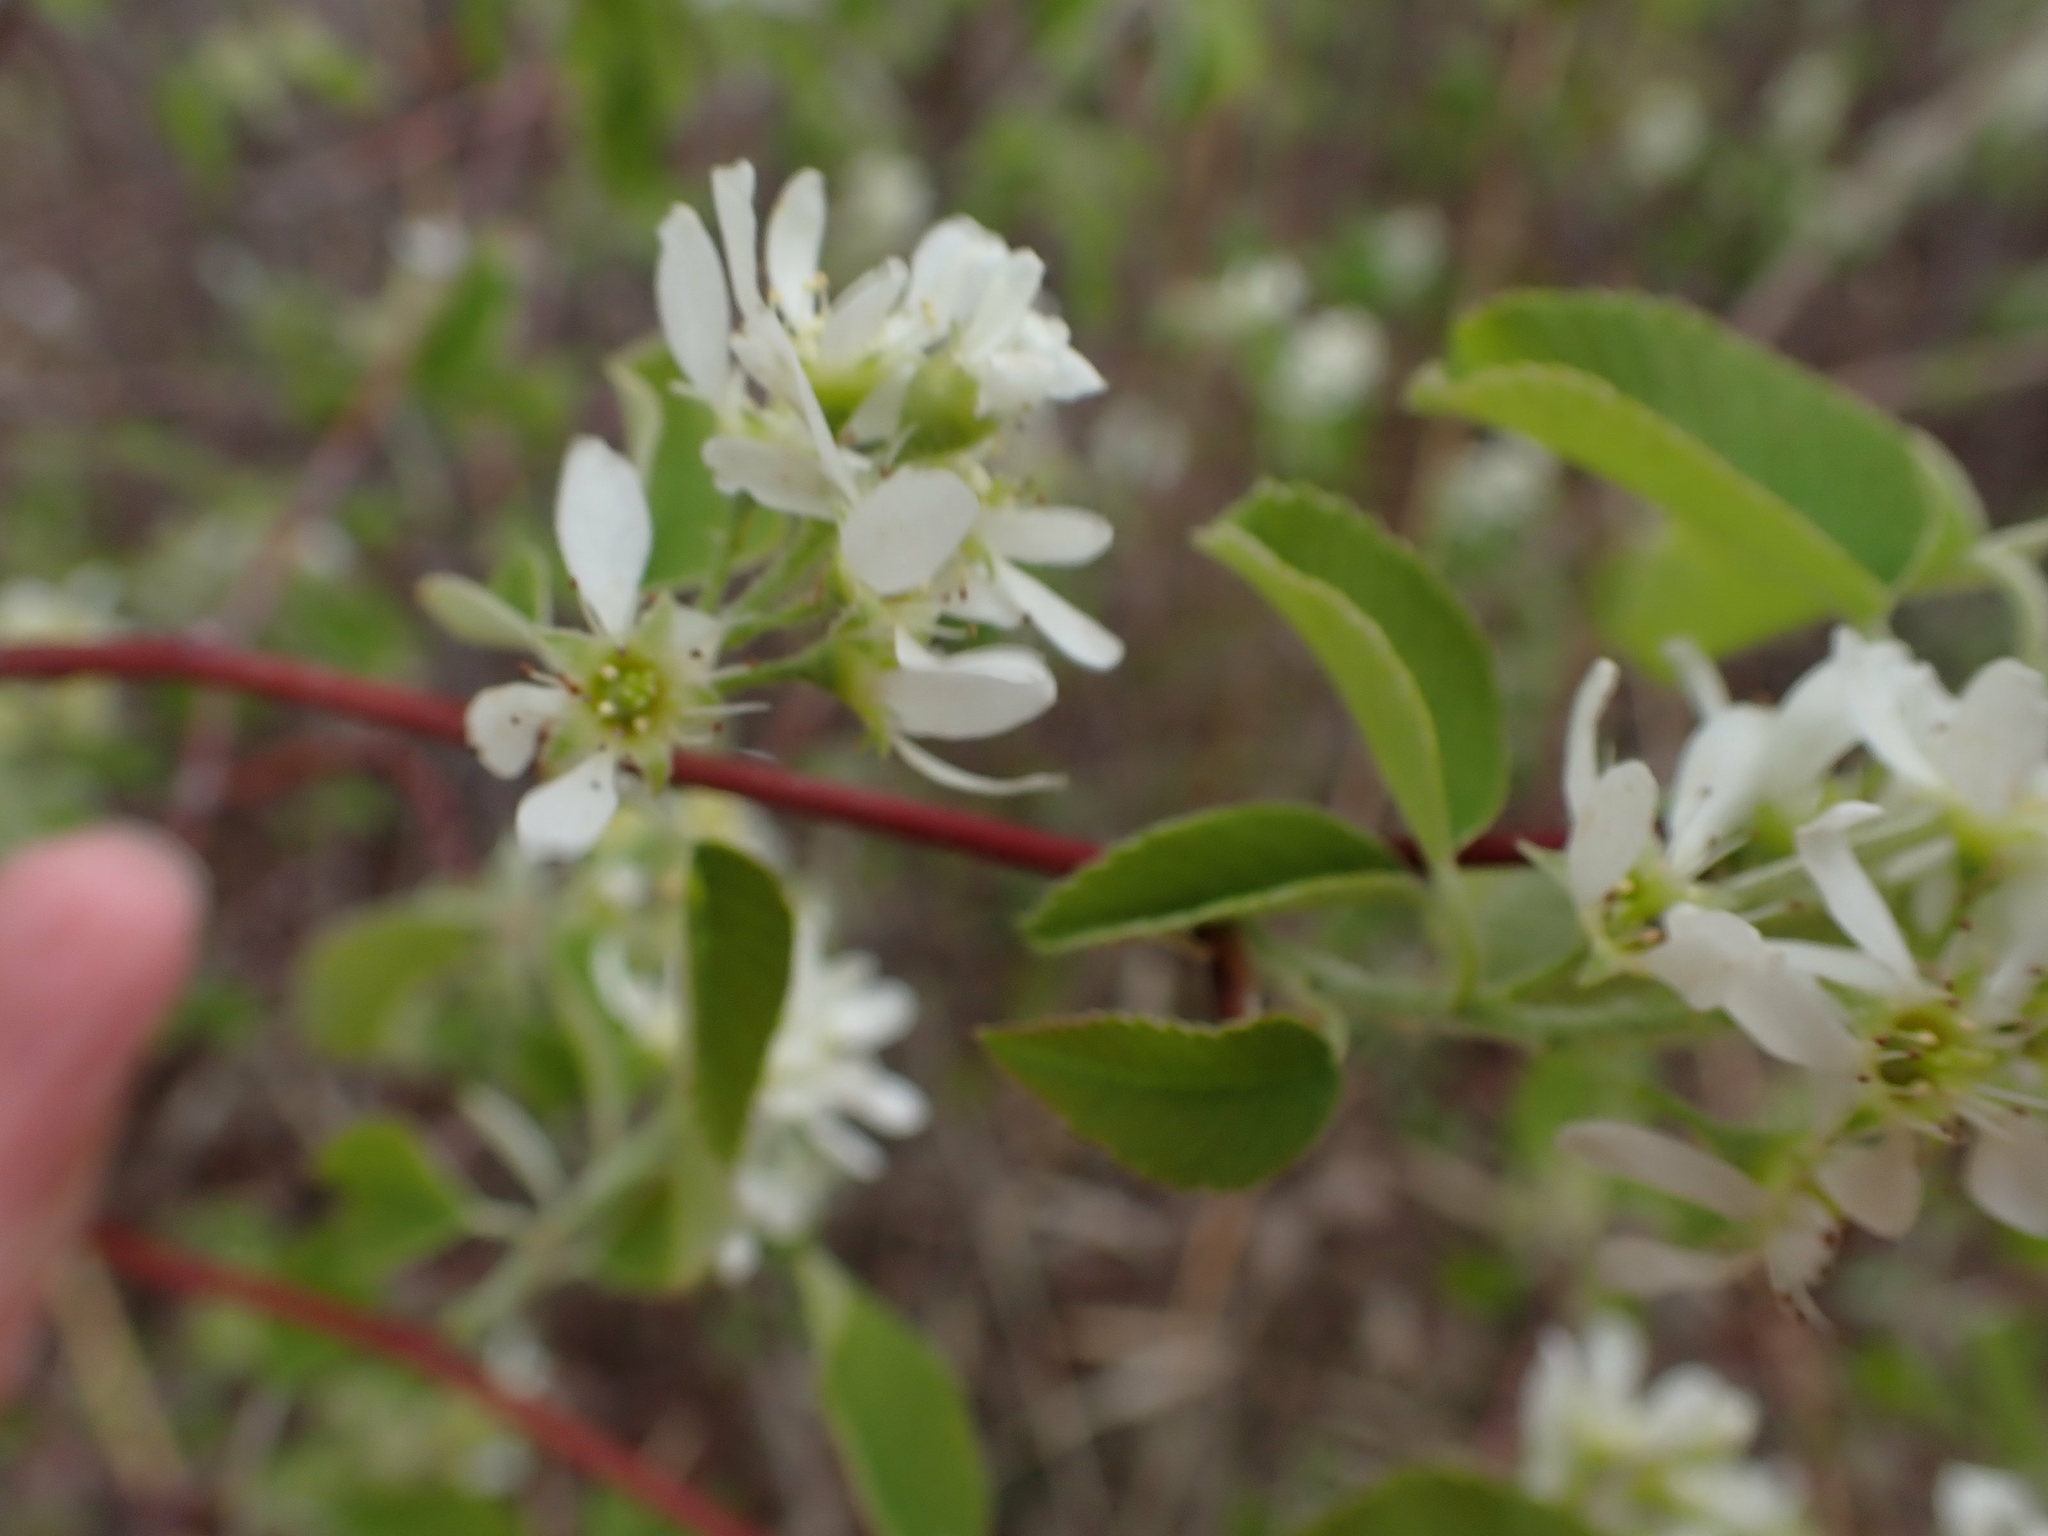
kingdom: Plantae
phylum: Tracheophyta
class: Magnoliopsida
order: Rosales
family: Rosaceae
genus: Amelanchier
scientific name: Amelanchier alnifolia
